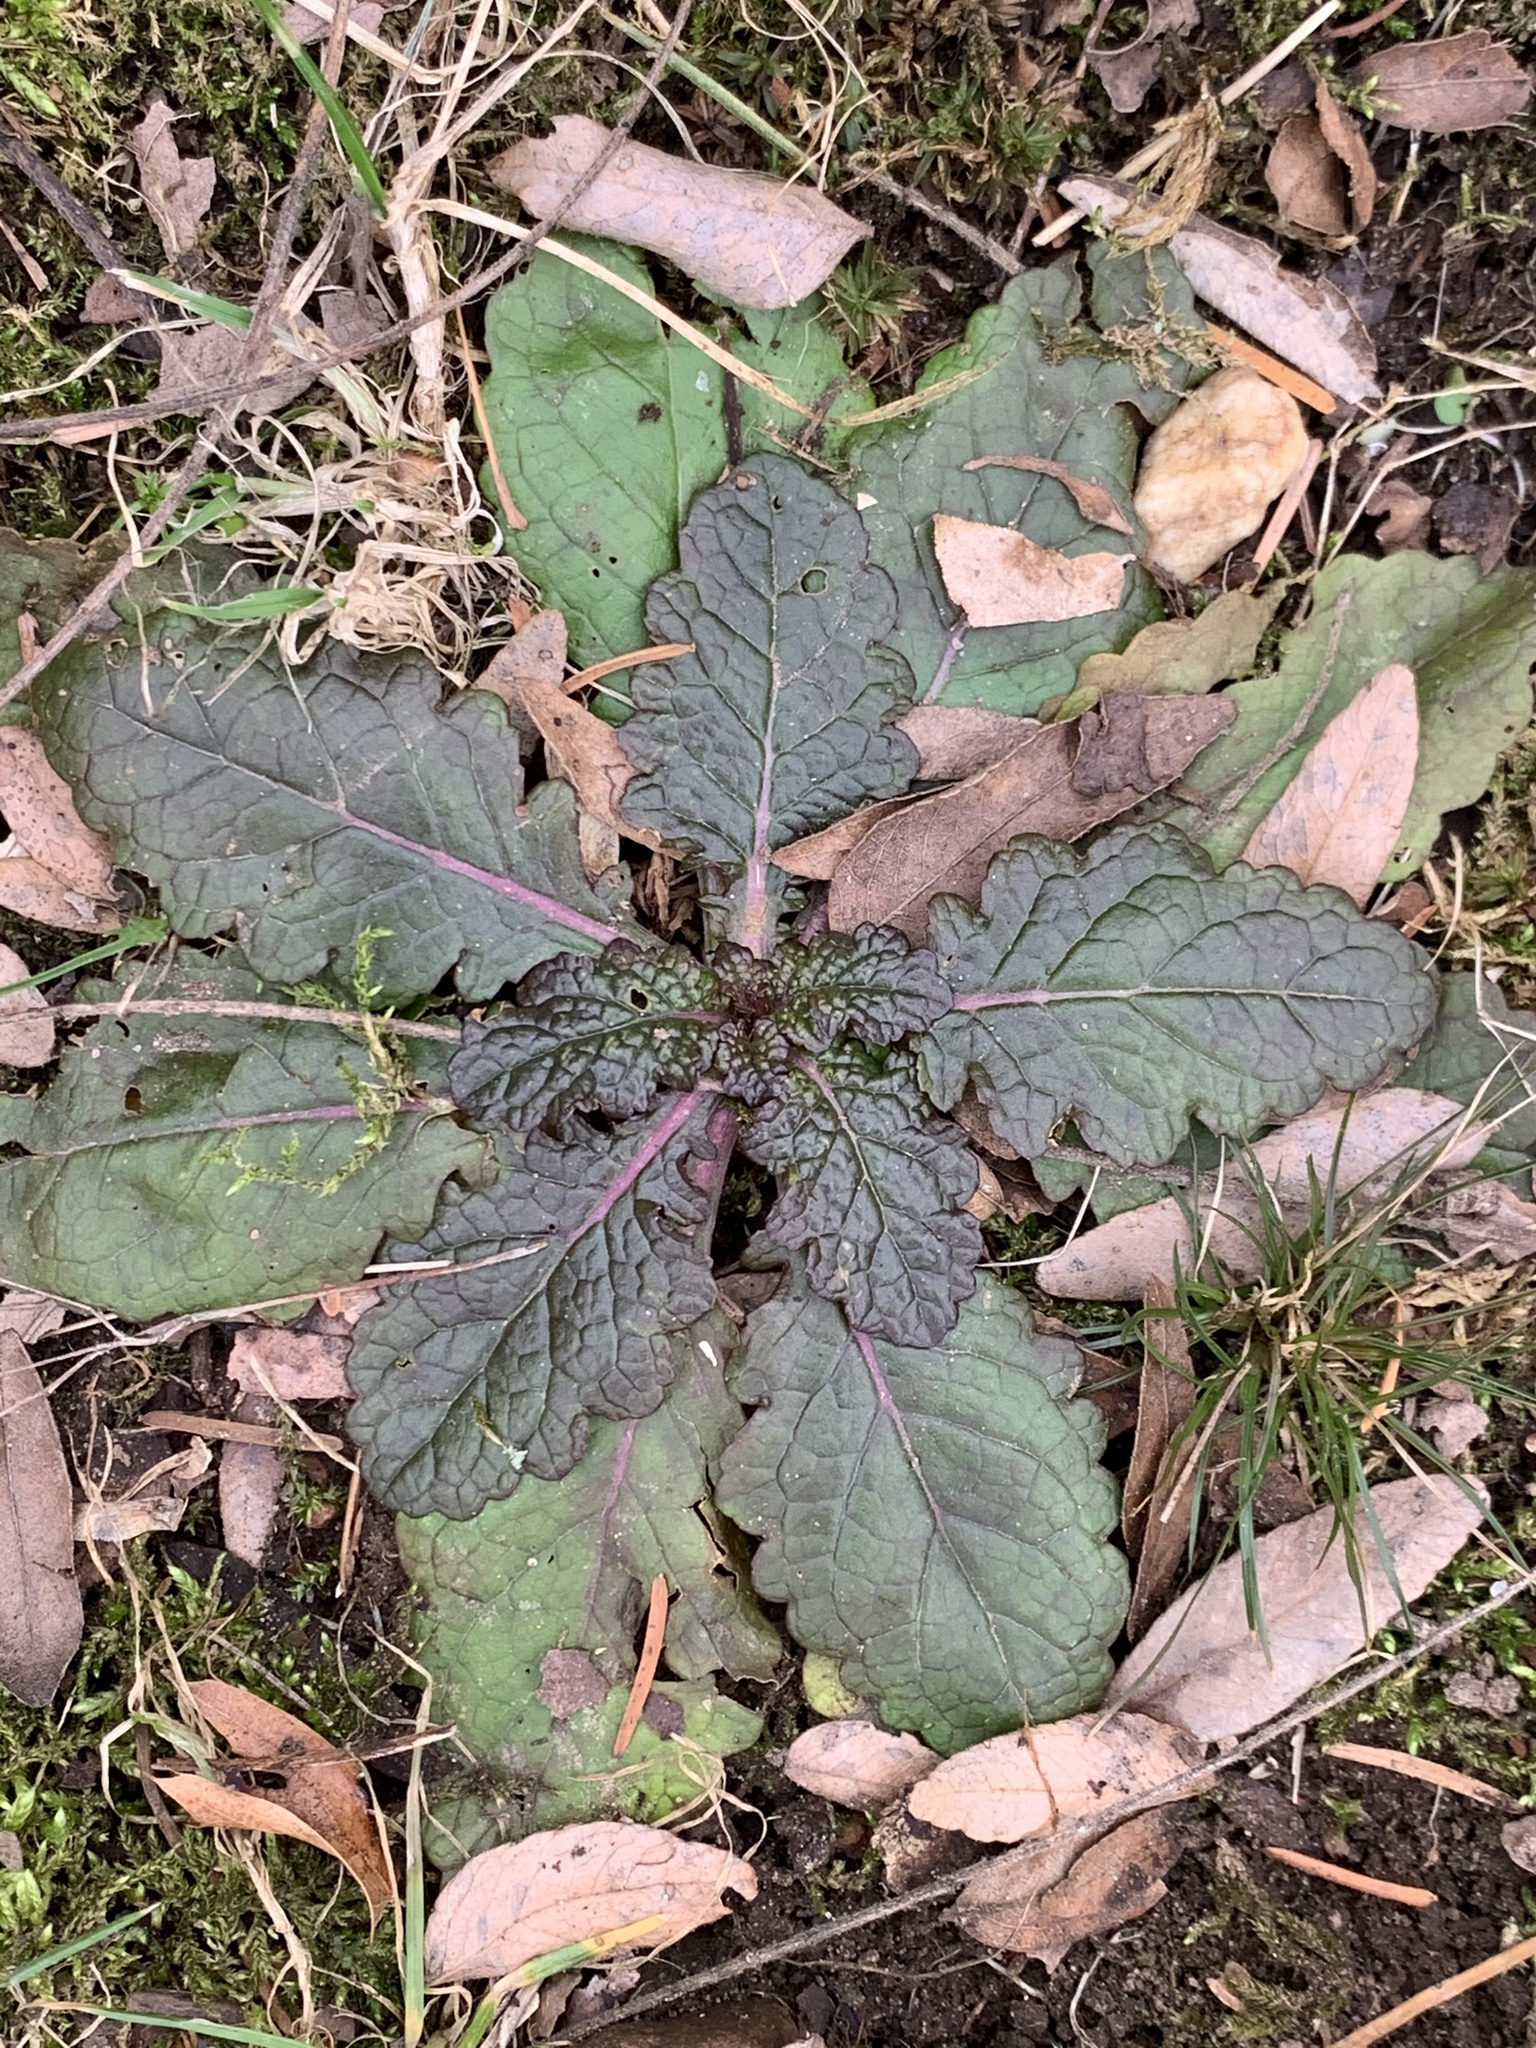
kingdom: Plantae
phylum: Tracheophyta
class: Magnoliopsida
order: Lamiales
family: Scrophulariaceae
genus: Verbascum
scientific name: Verbascum blattaria
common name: Moth mullein
